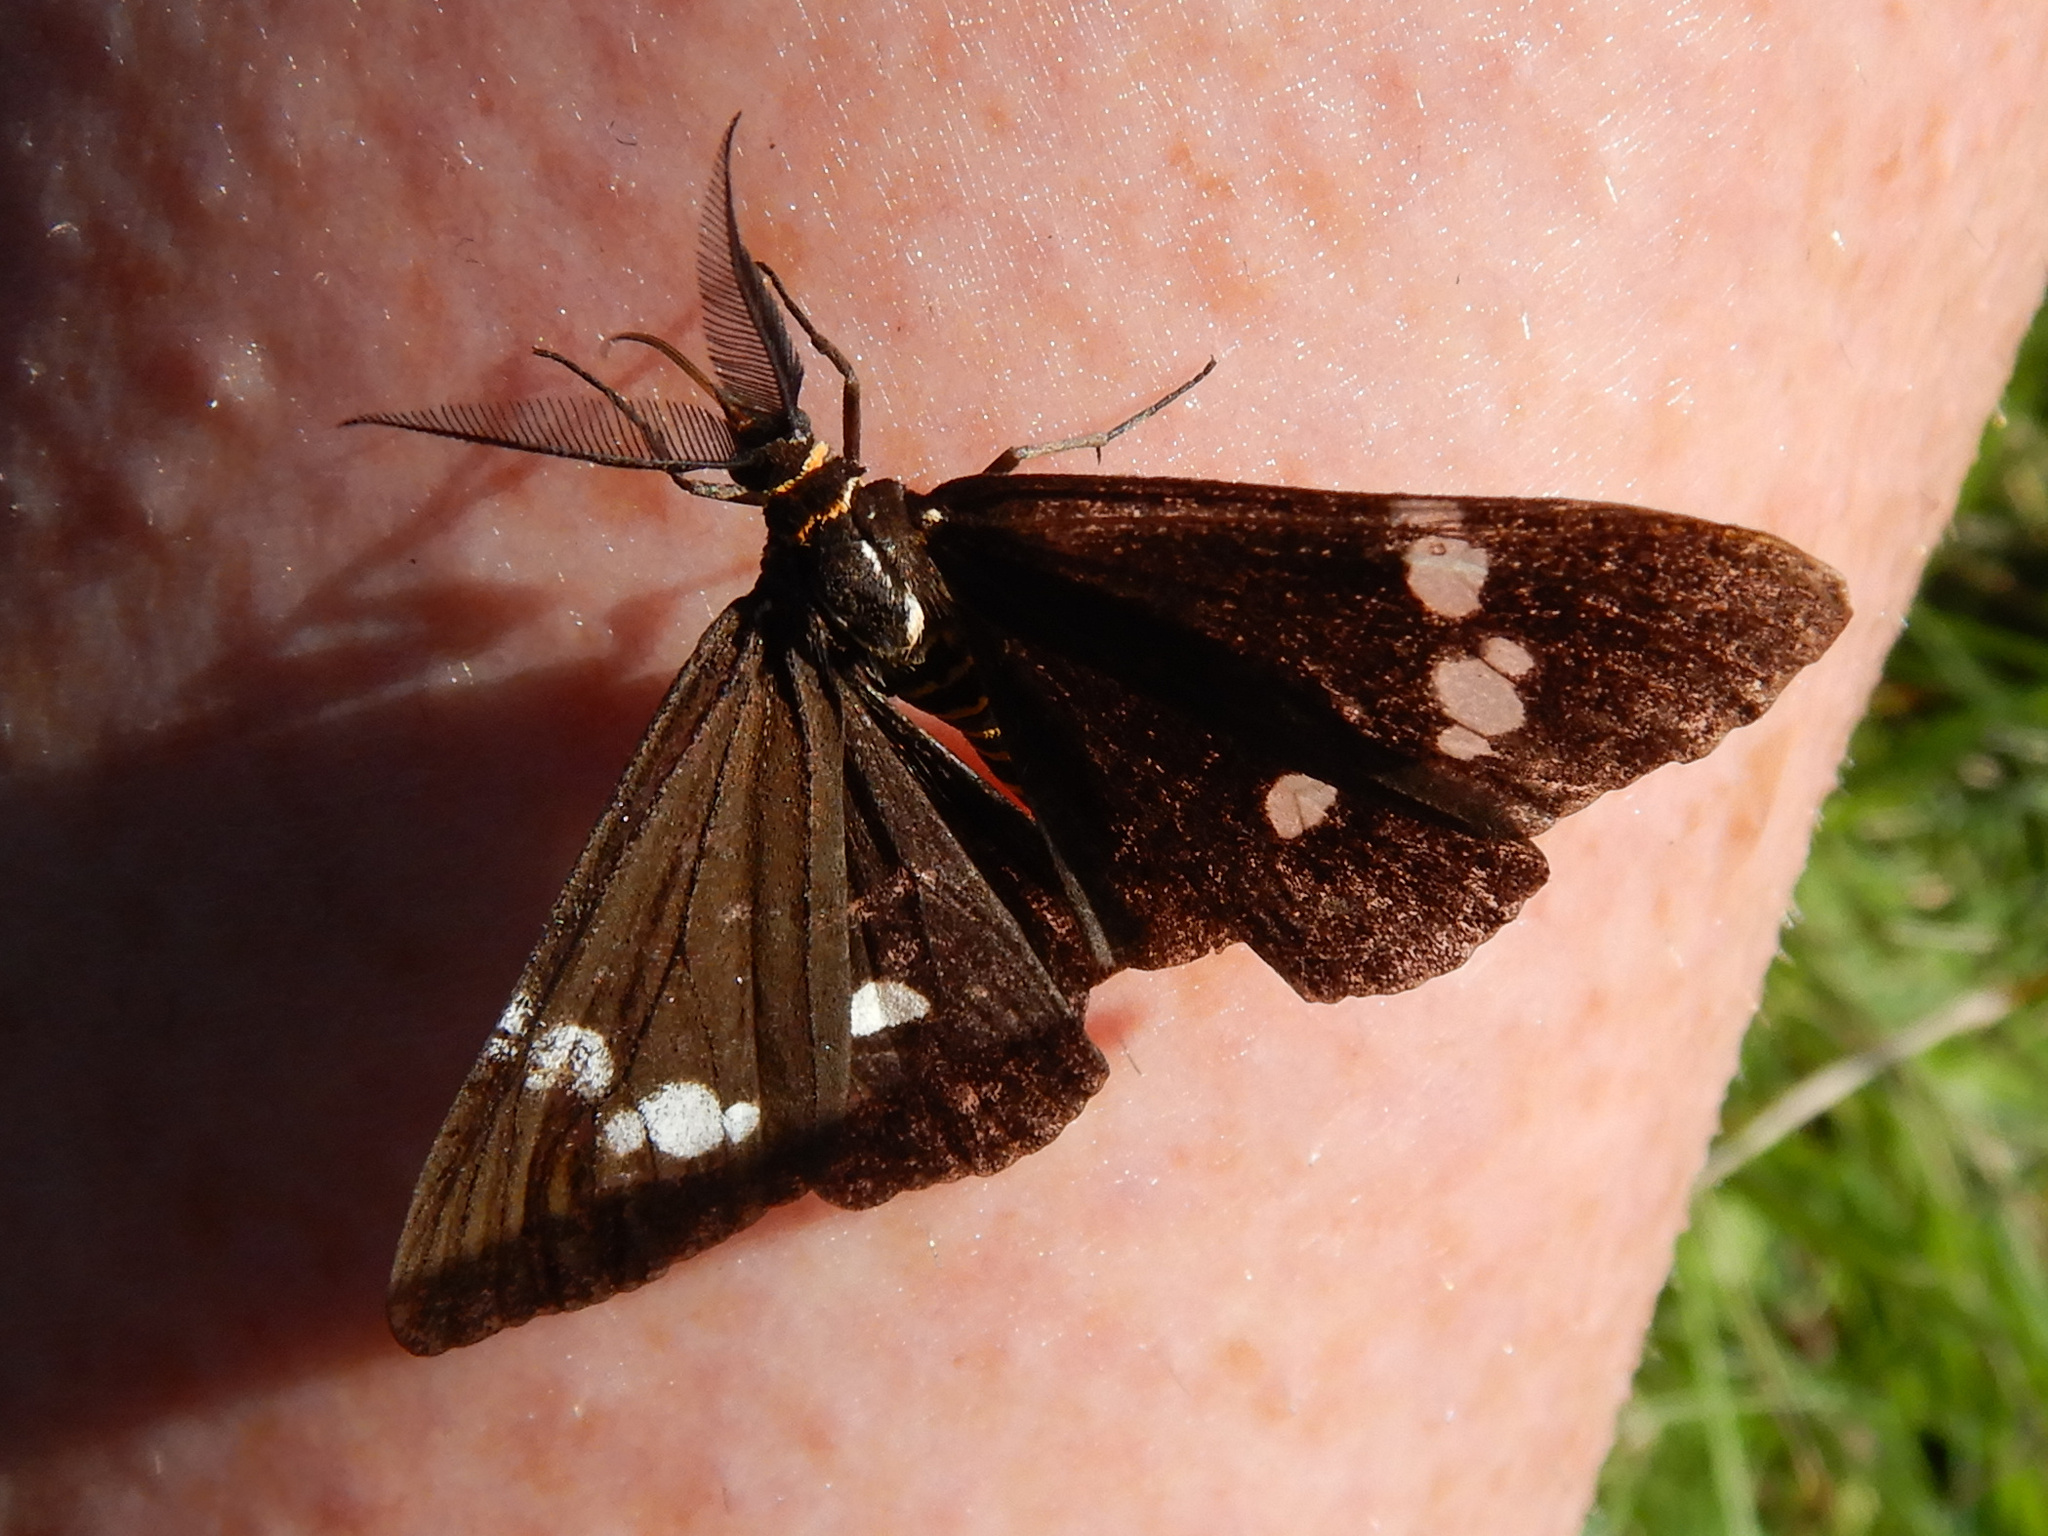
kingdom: Animalia
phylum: Arthropoda
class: Insecta
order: Lepidoptera
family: Erebidae
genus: Nyctemera
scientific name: Nyctemera annulatum
